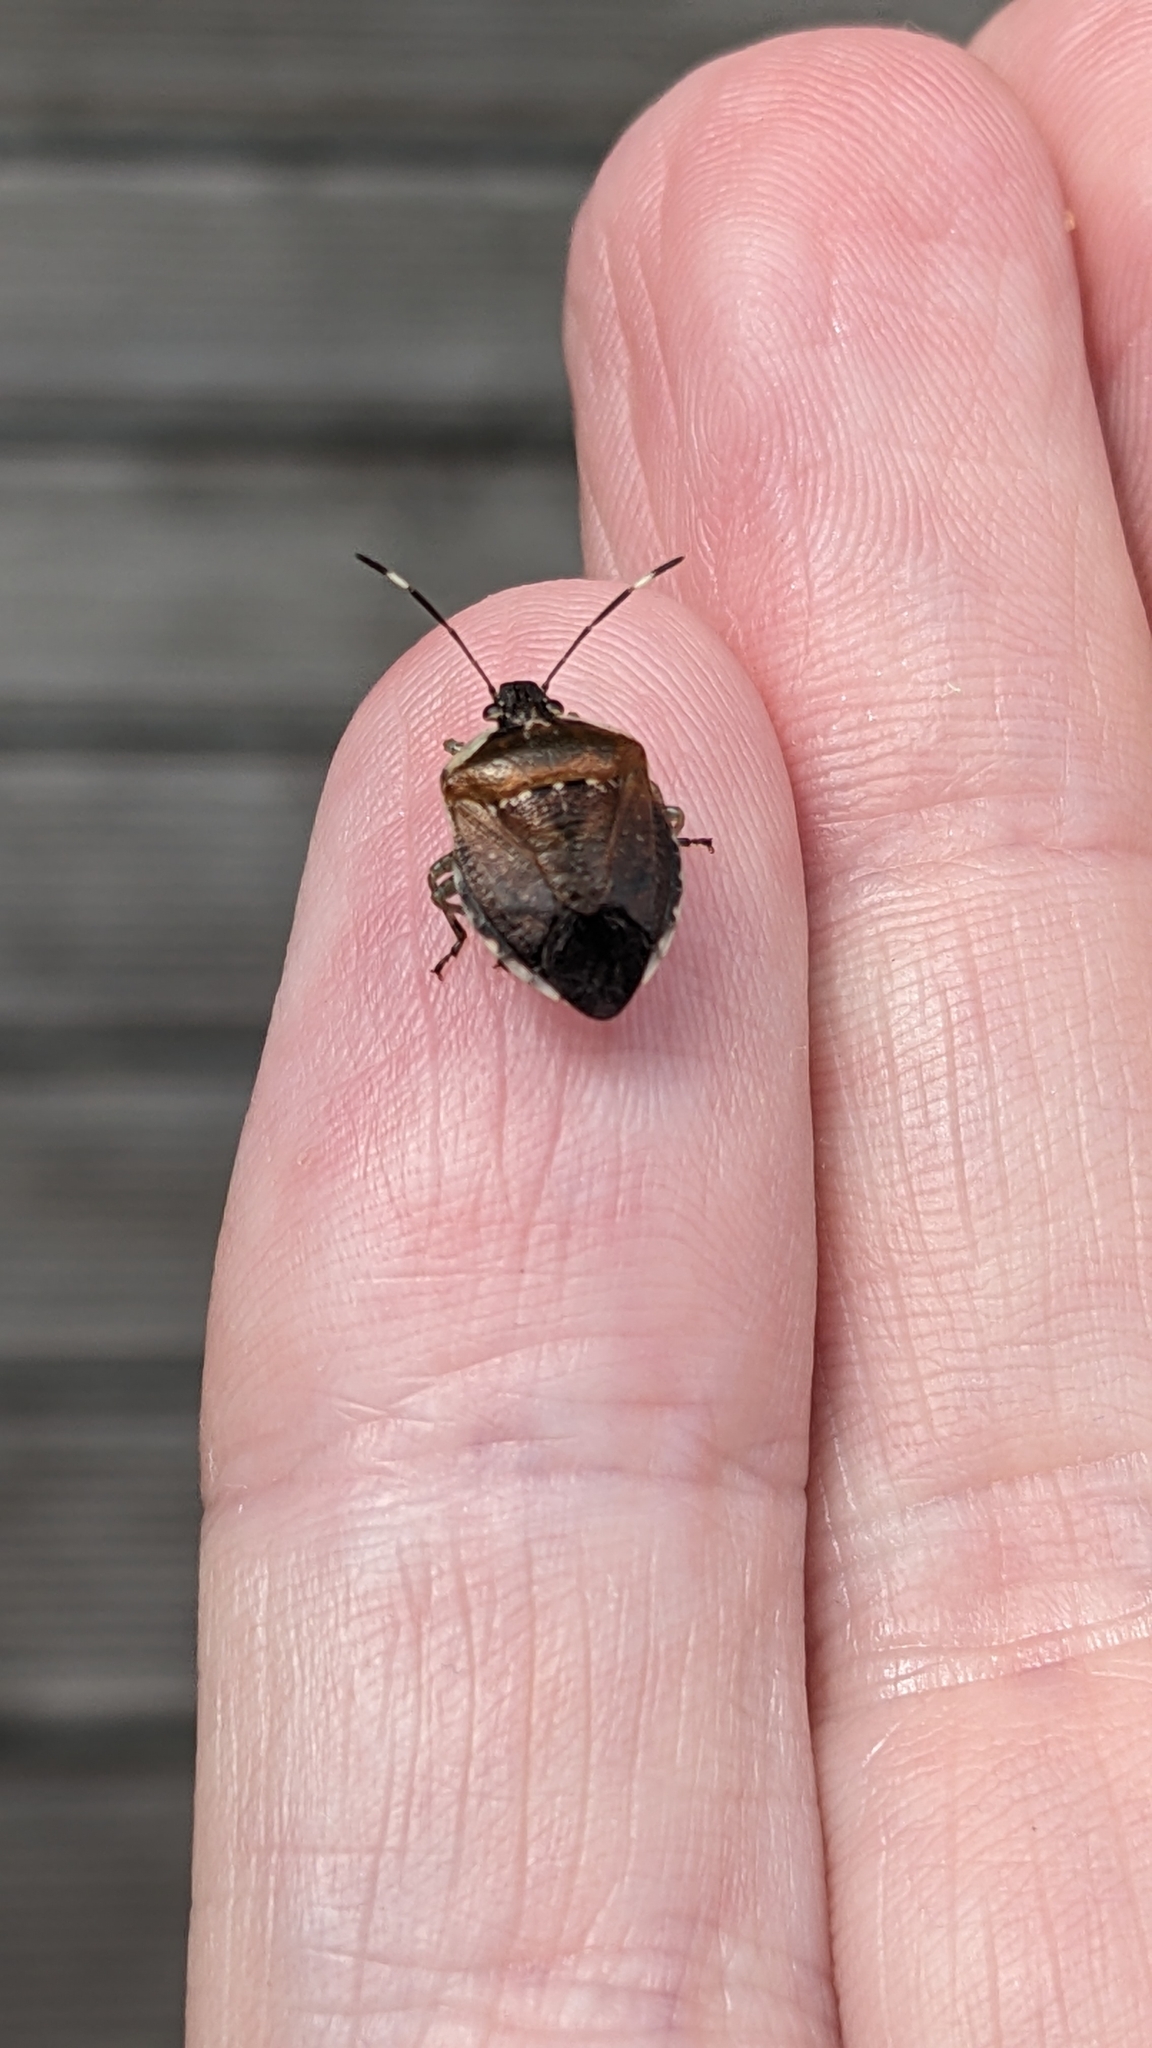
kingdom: Animalia
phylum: Arthropoda
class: Insecta
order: Hemiptera
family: Pentatomidae
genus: Monteithiella
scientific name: Monteithiella
